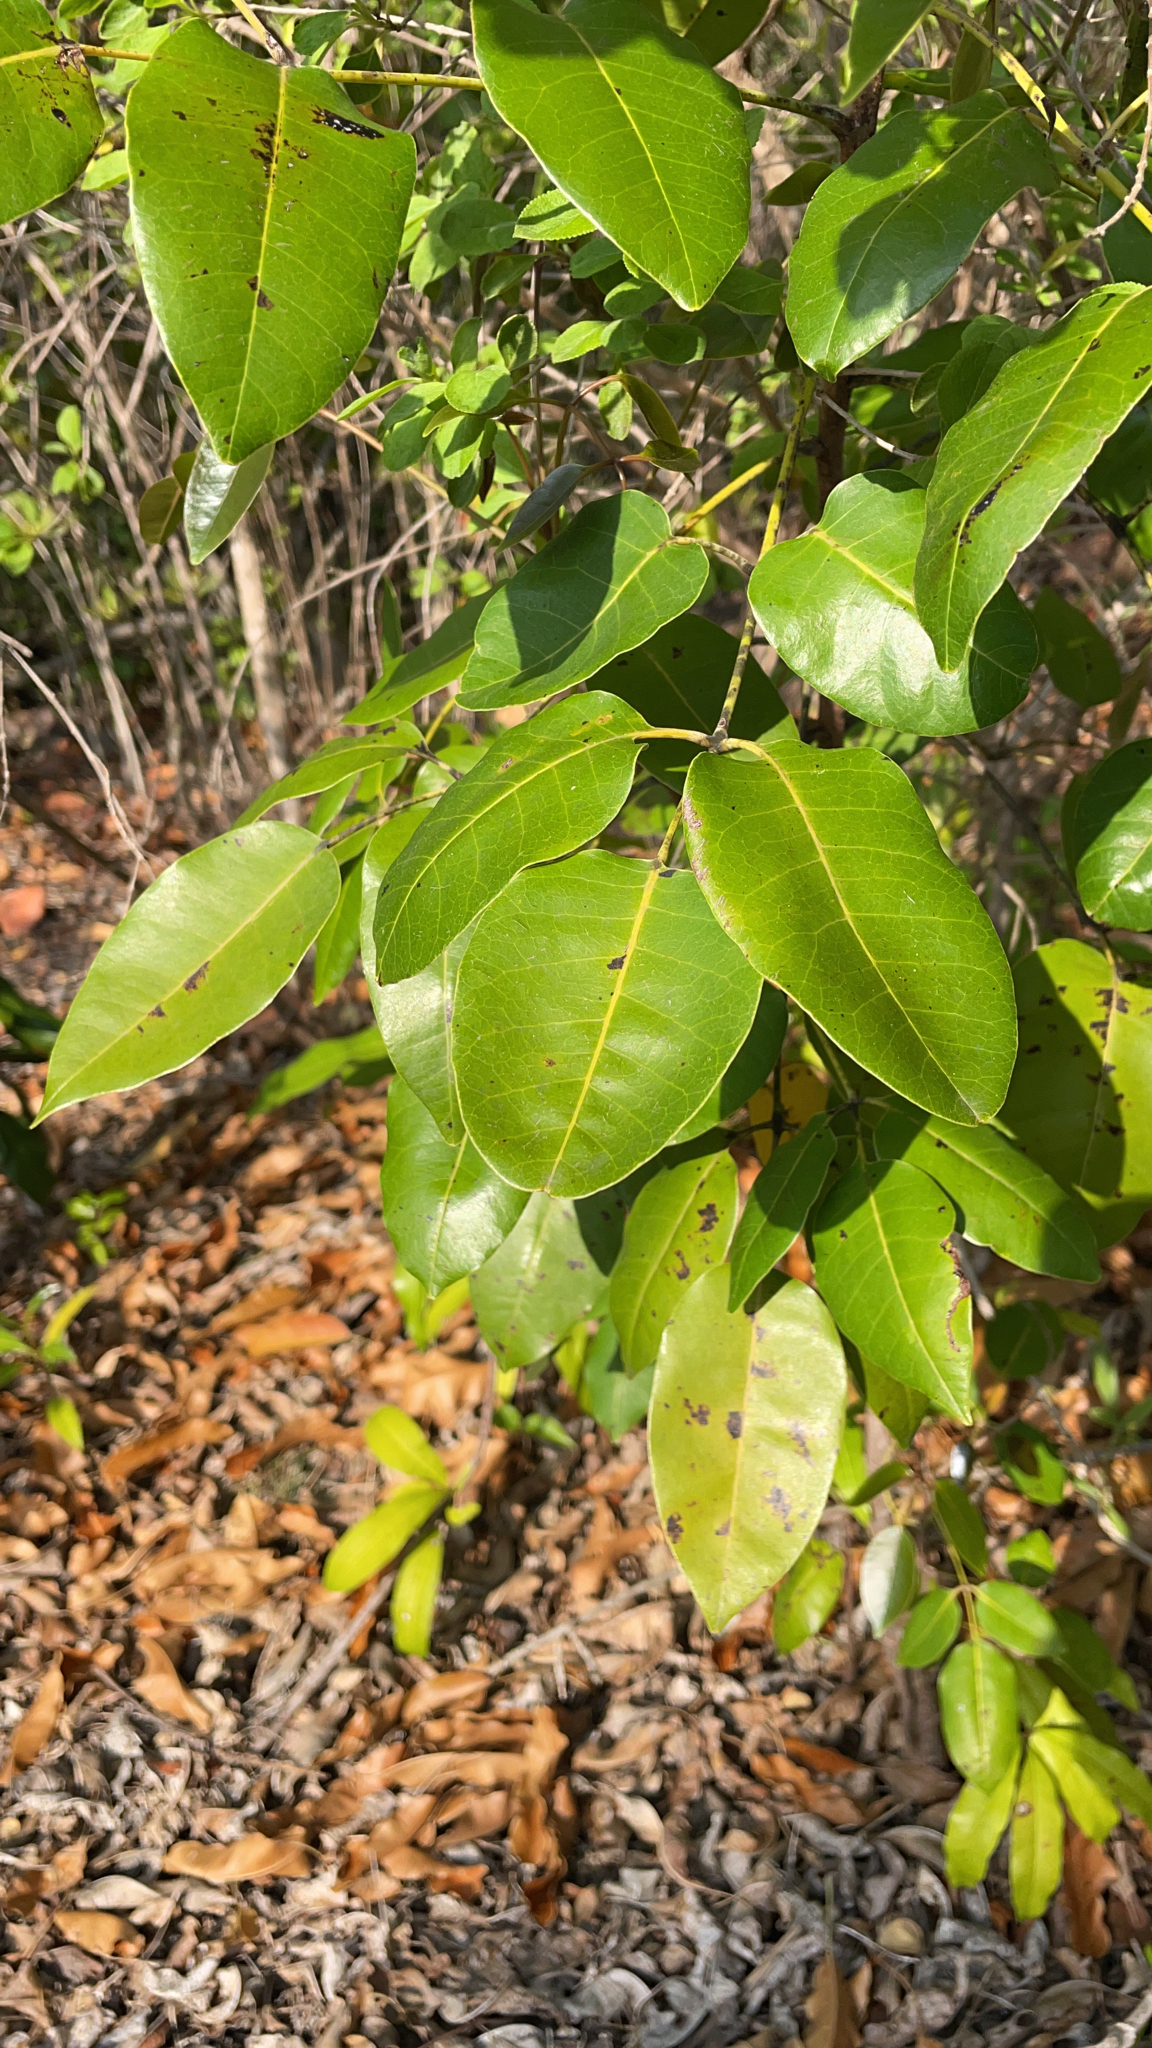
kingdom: Plantae
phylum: Tracheophyta
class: Magnoliopsida
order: Sapindales
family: Anacardiaceae
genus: Metopium
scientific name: Metopium toxiferum
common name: Florida poisontree
